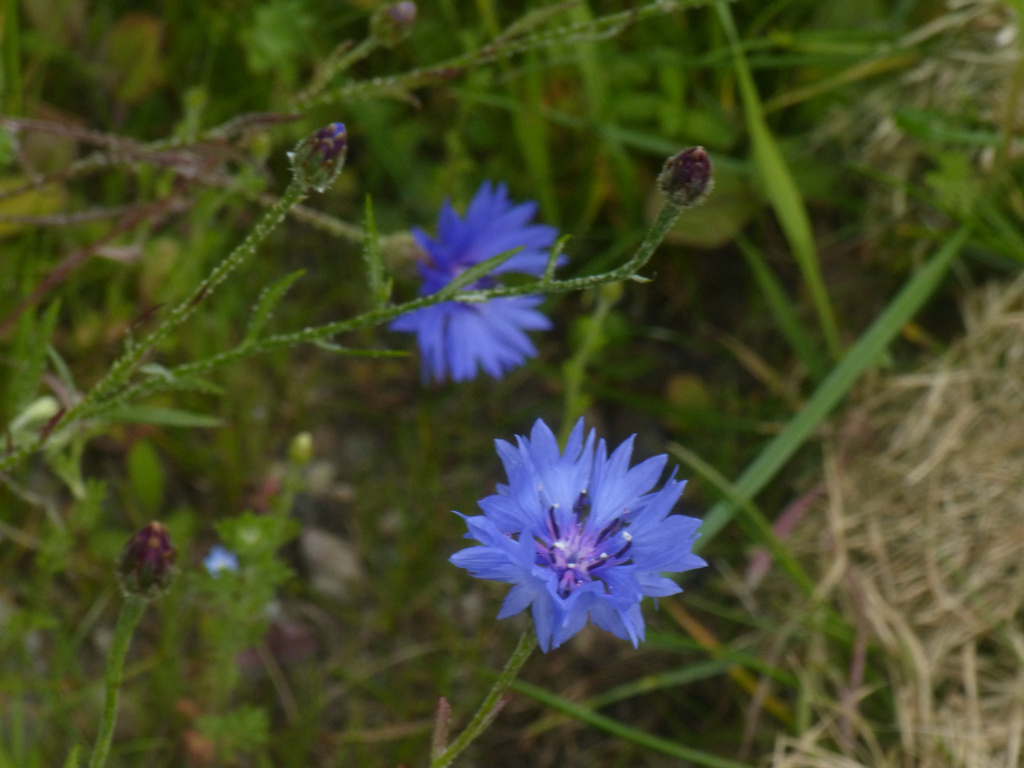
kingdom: Plantae
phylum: Tracheophyta
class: Magnoliopsida
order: Asterales
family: Asteraceae
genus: Centaurea
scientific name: Centaurea cyanus
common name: Cornflower
